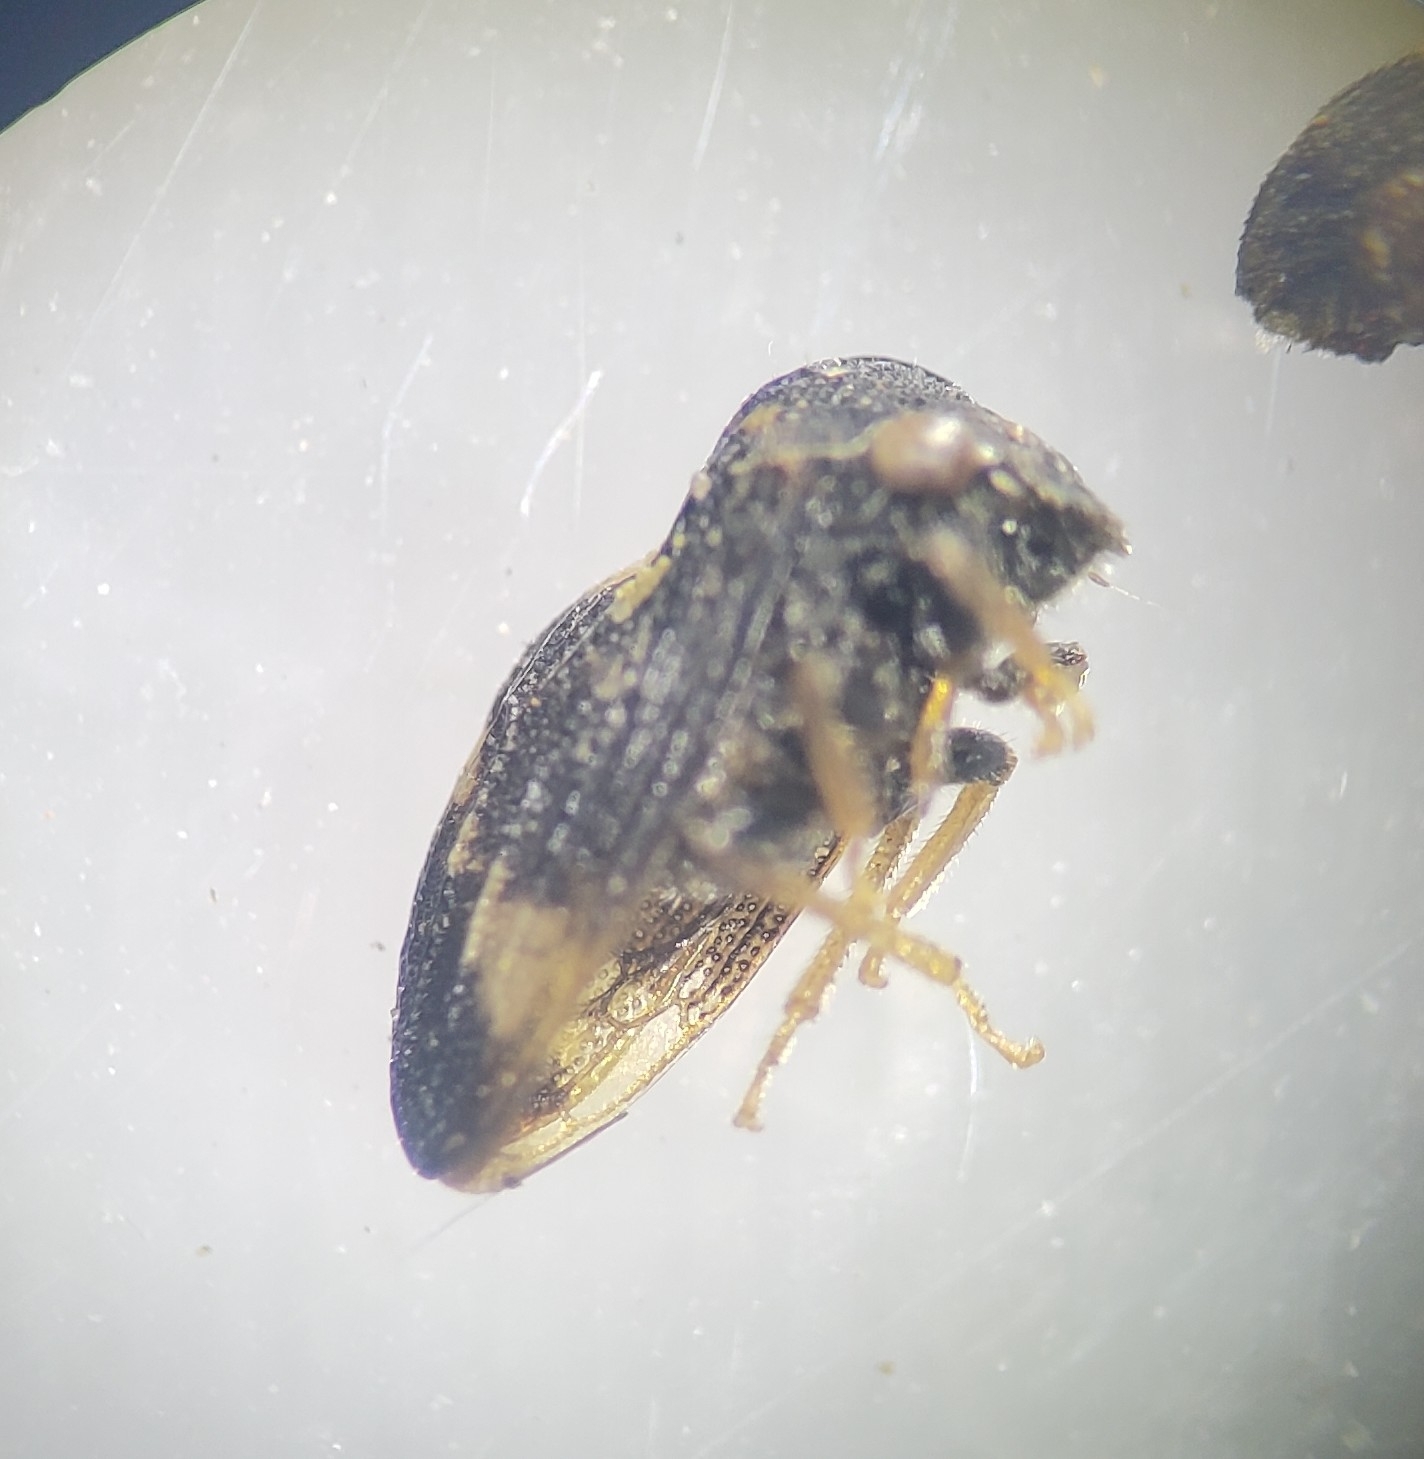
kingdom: Animalia
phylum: Arthropoda
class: Insecta
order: Hemiptera
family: Membracidae
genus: Publilia
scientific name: Publilia concava
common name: Aster treehopper
